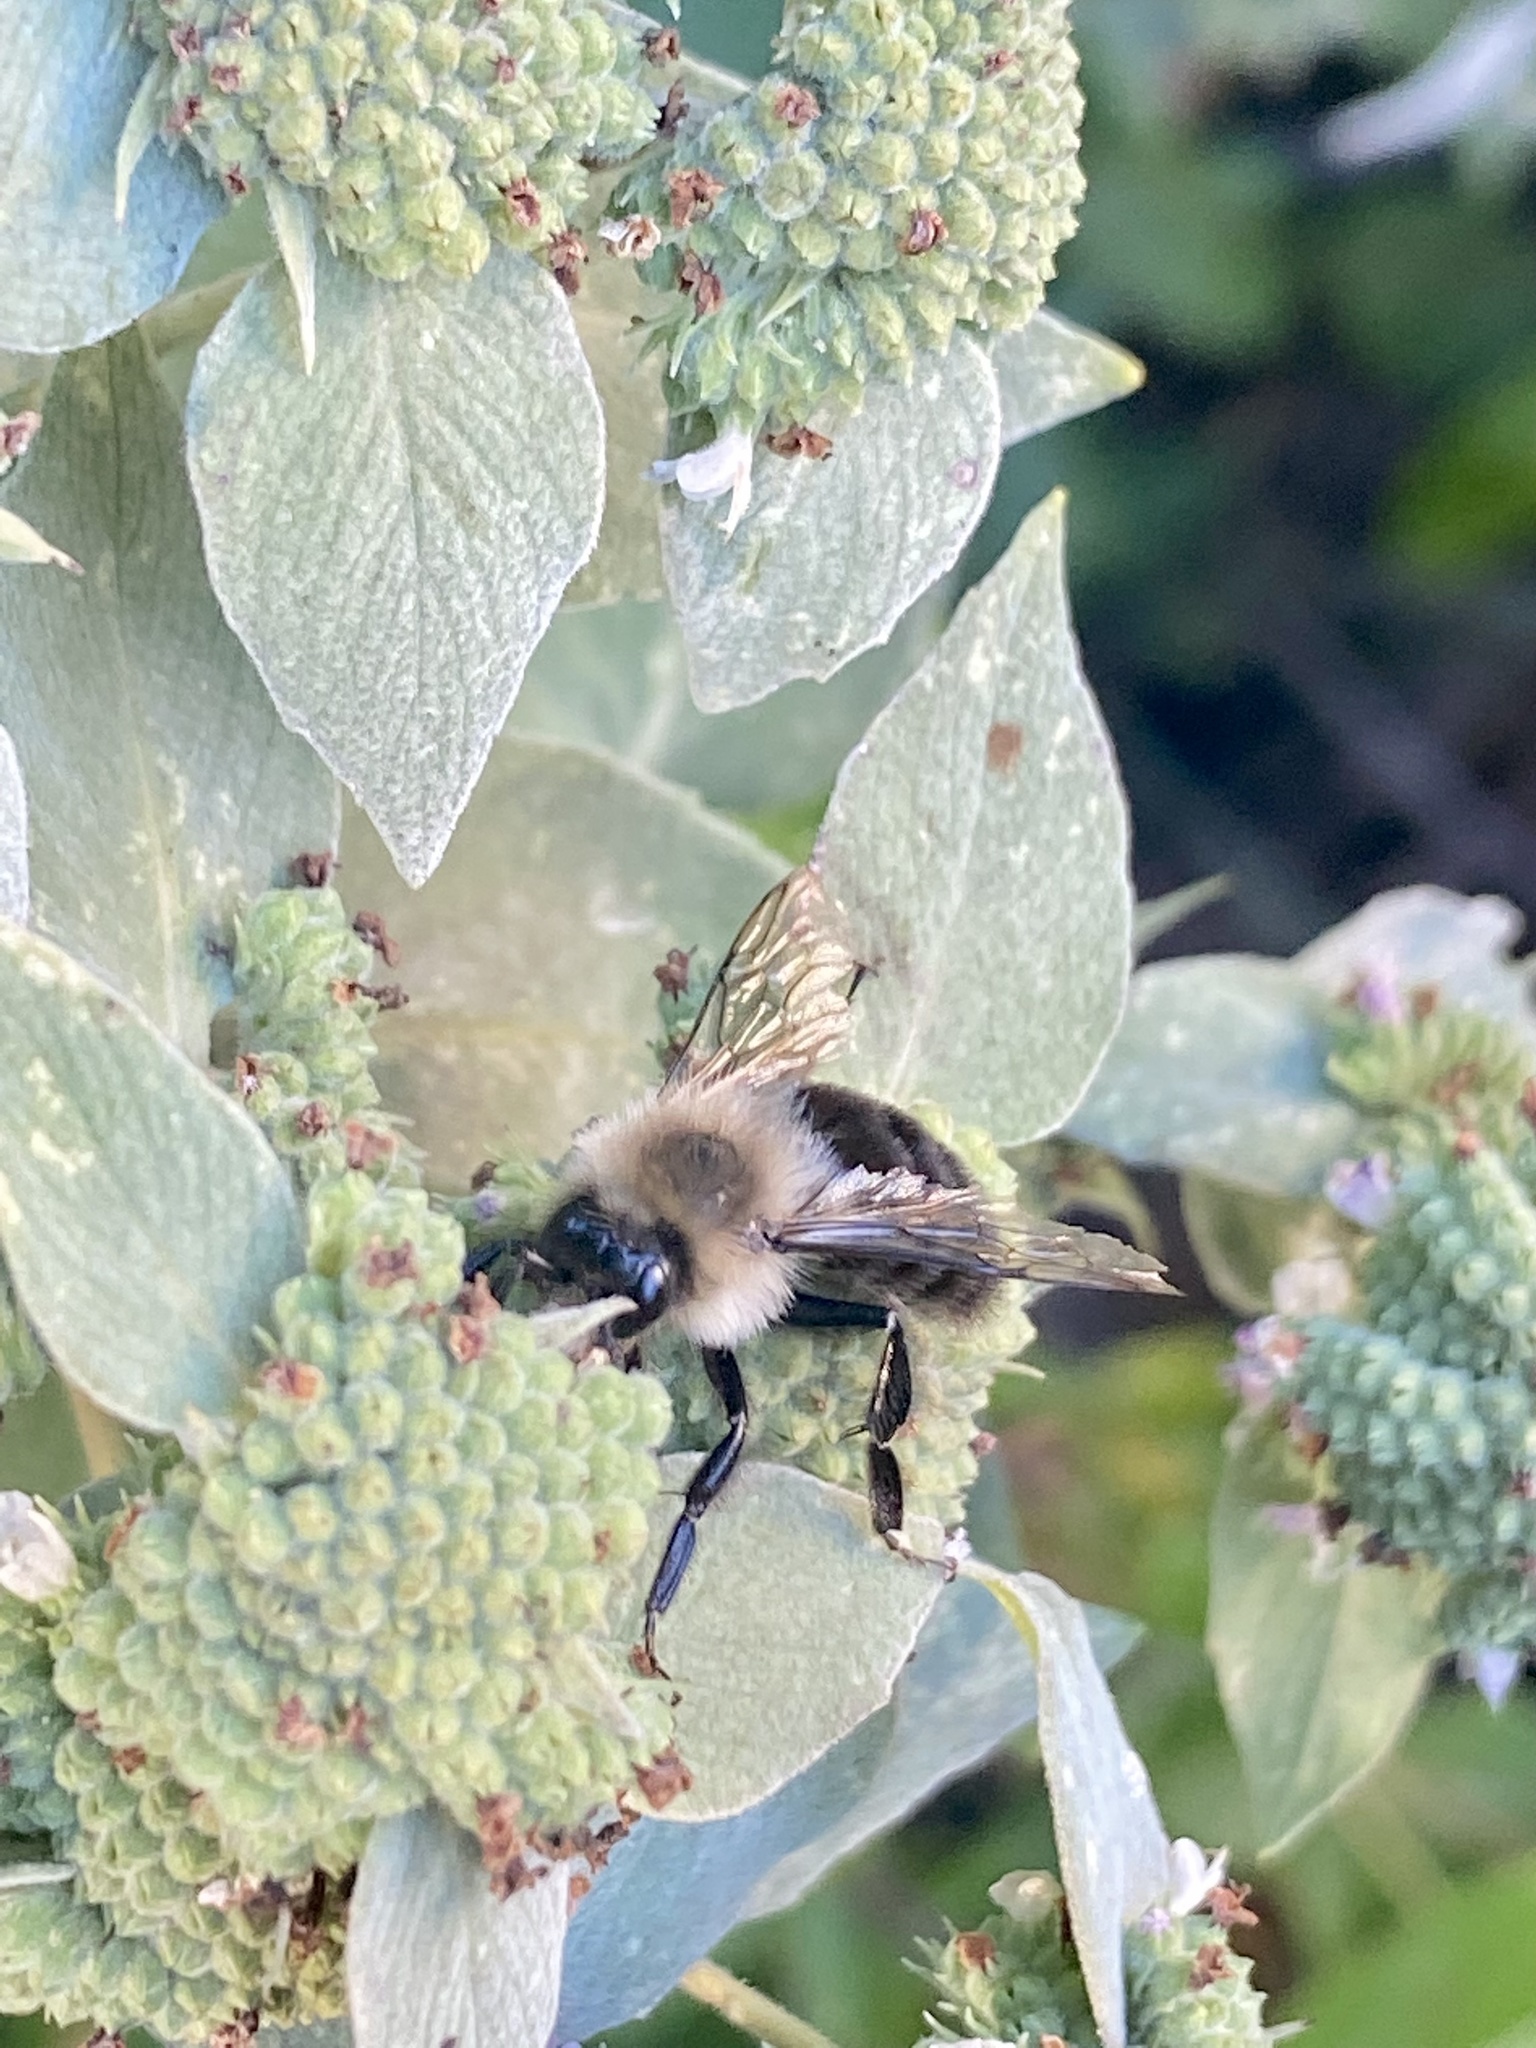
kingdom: Animalia
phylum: Arthropoda
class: Insecta
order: Hymenoptera
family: Apidae
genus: Bombus
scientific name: Bombus impatiens
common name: Common eastern bumble bee
